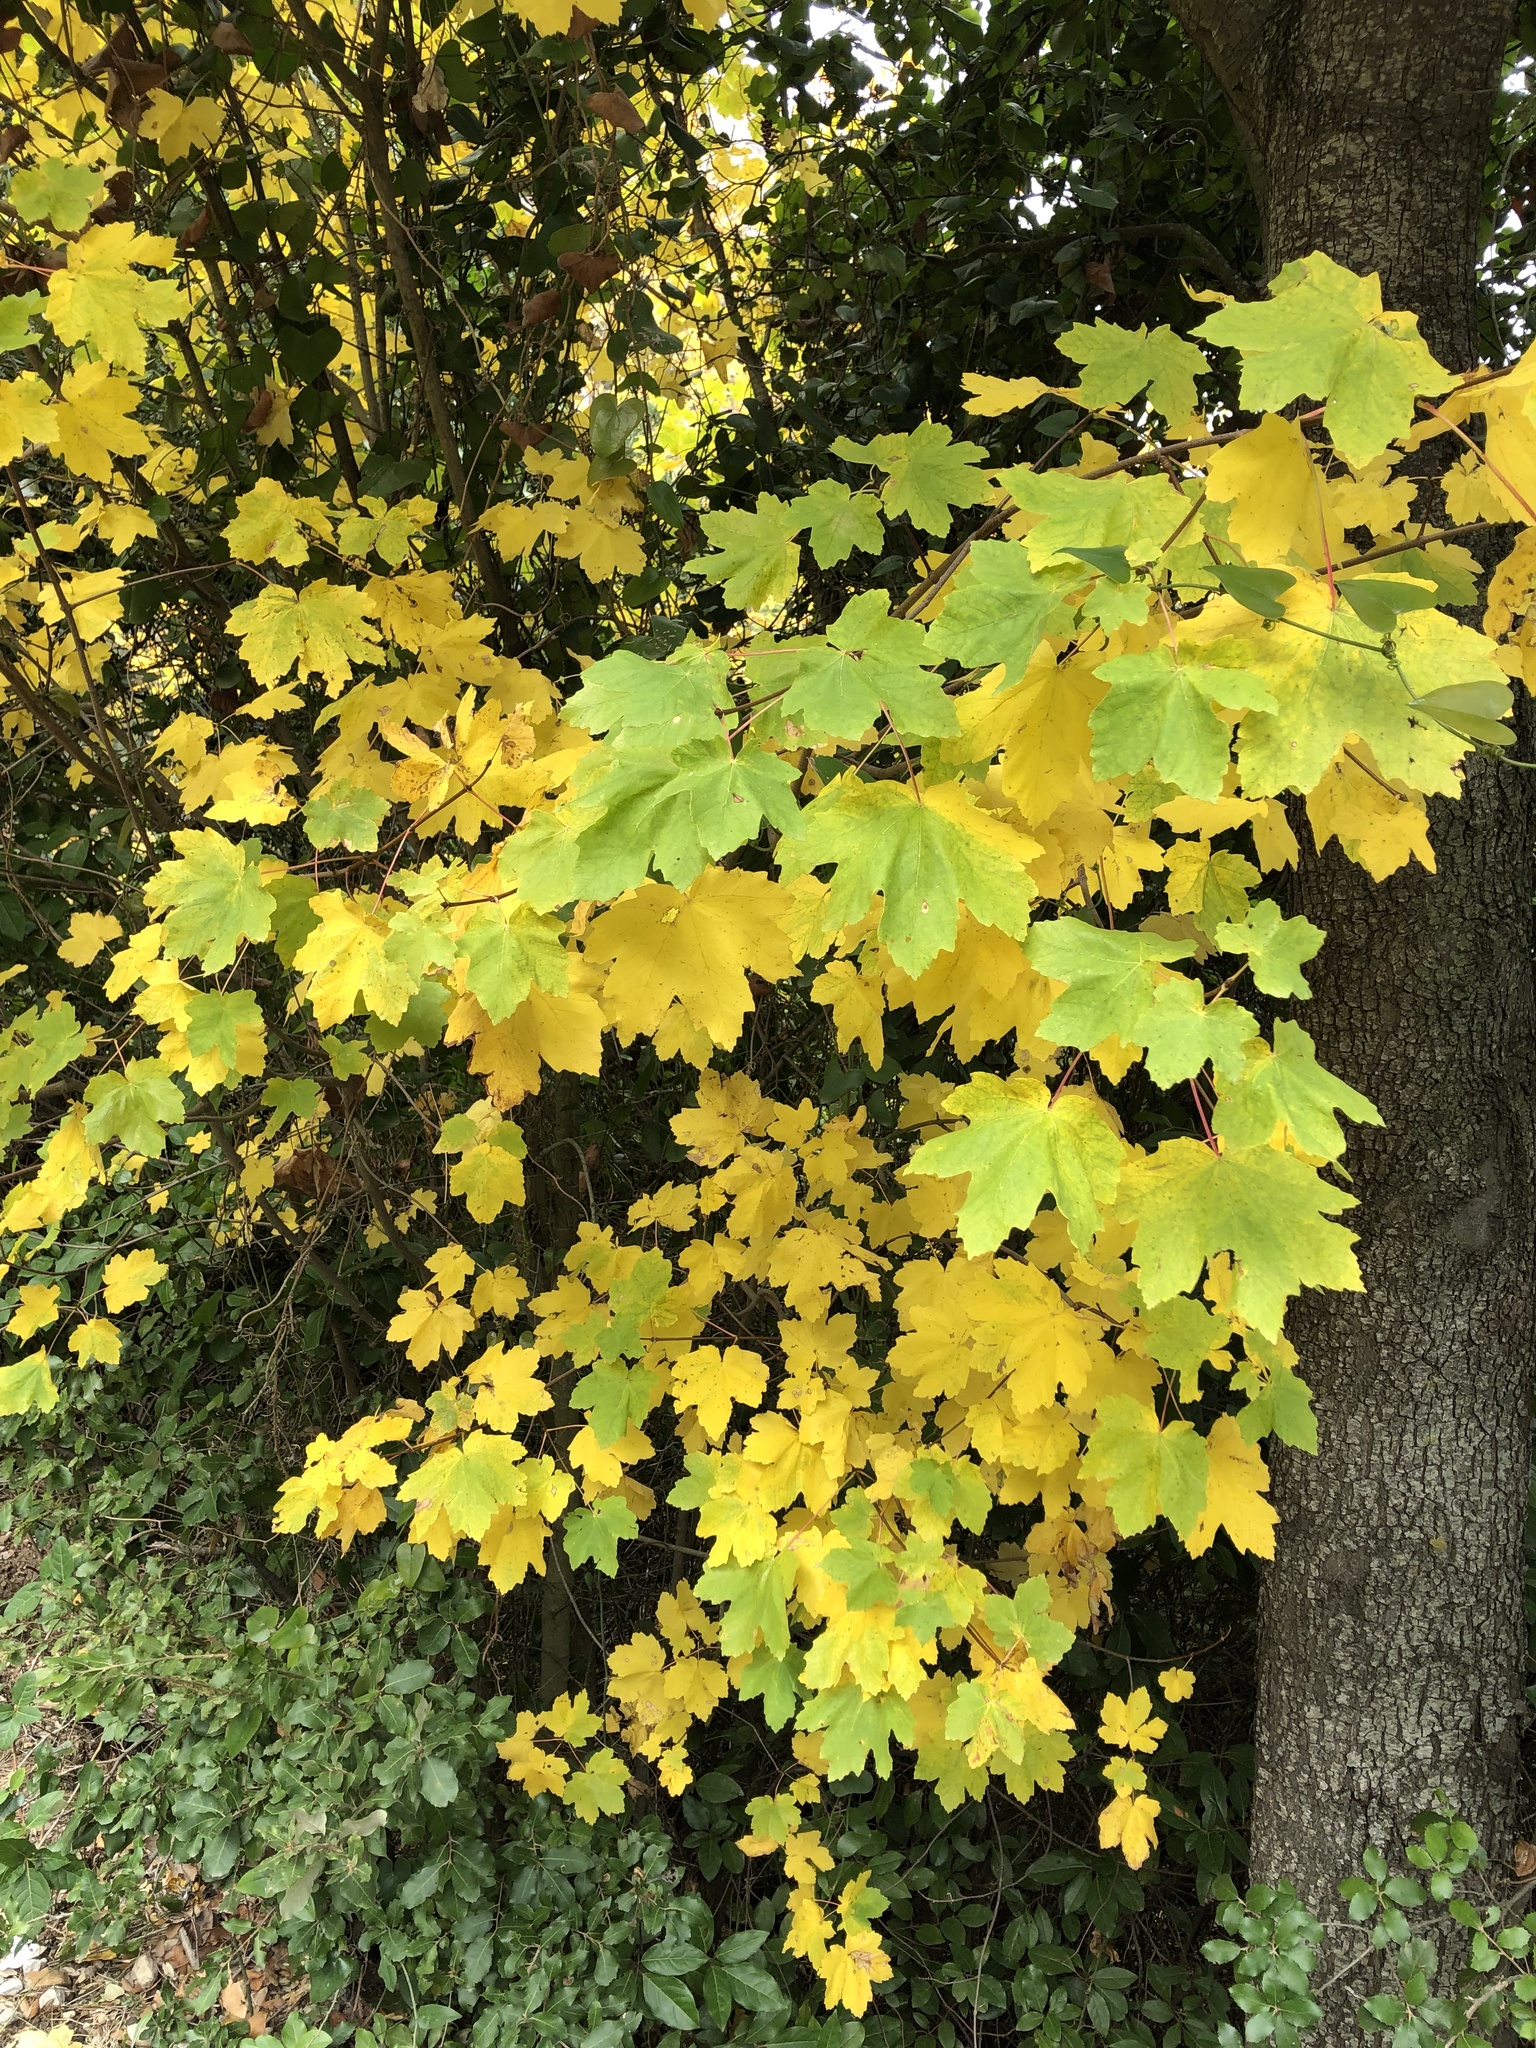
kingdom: Plantae
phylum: Tracheophyta
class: Magnoliopsida
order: Sapindales
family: Sapindaceae
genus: Acer
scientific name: Acer opalus
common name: Italian maple
